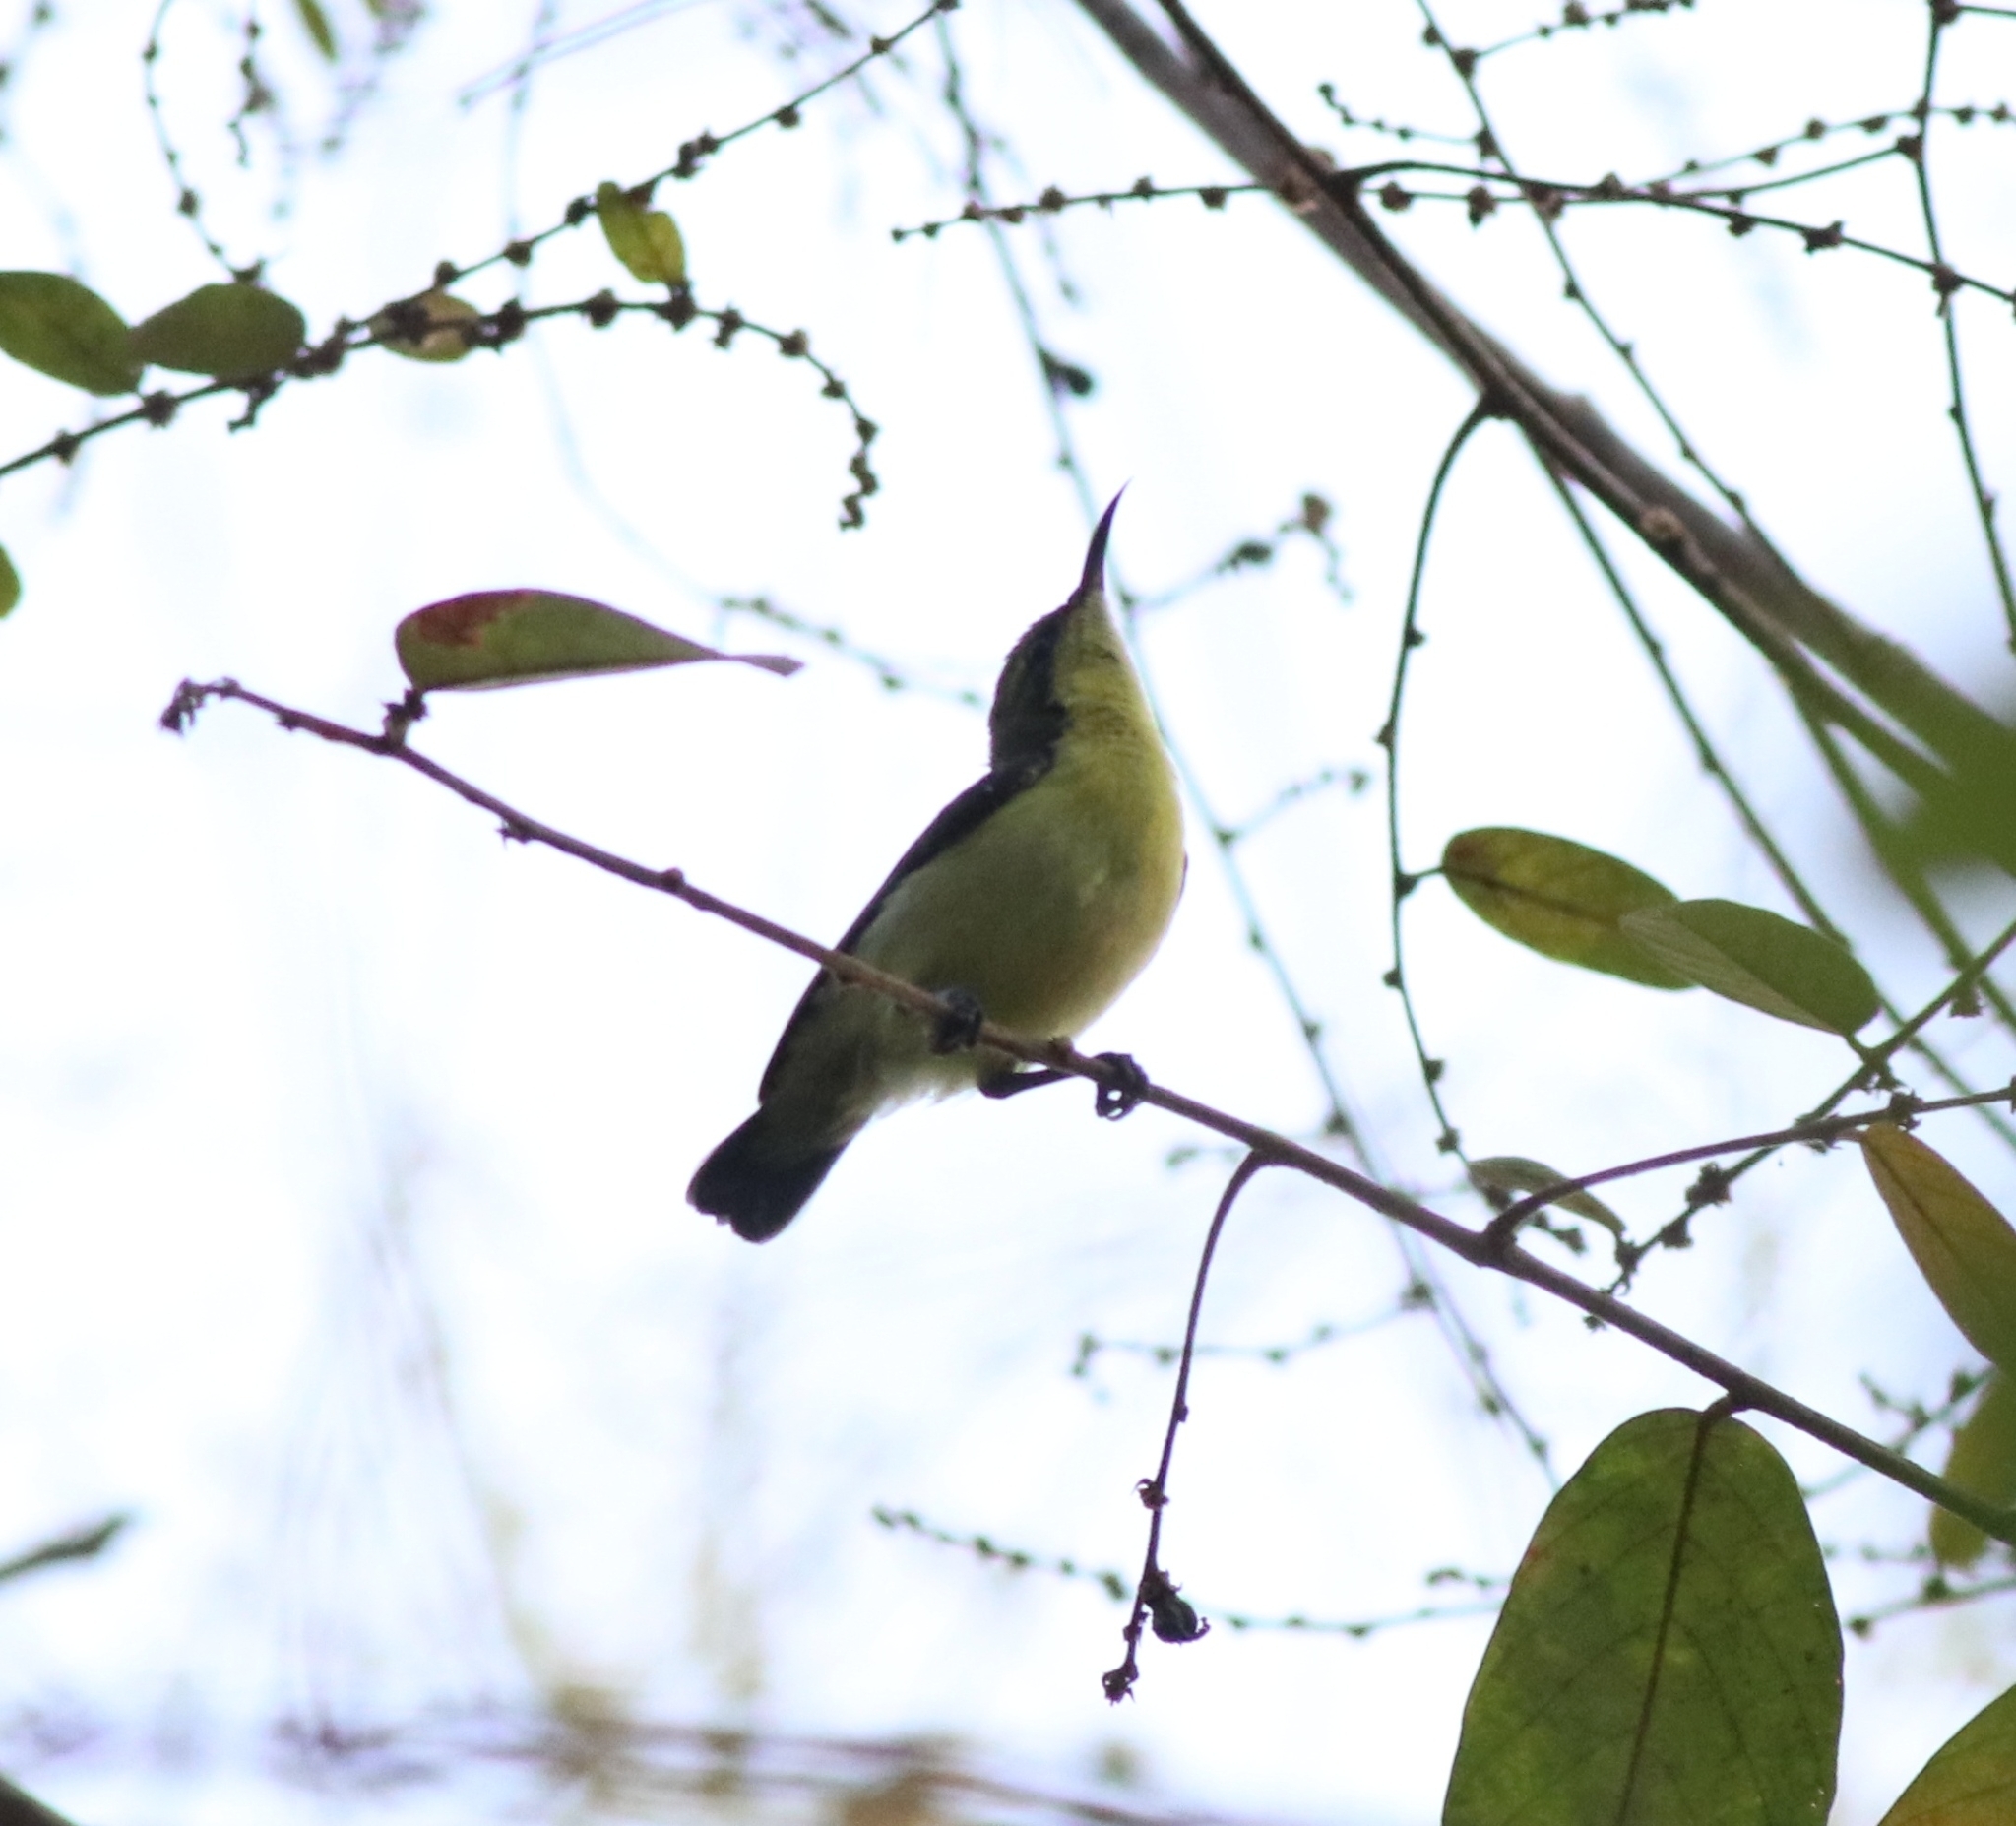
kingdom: Animalia
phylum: Chordata
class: Aves
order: Passeriformes
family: Nectariniidae
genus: Leptocoma
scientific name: Leptocoma zeylonica
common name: Purple-rumped sunbird
